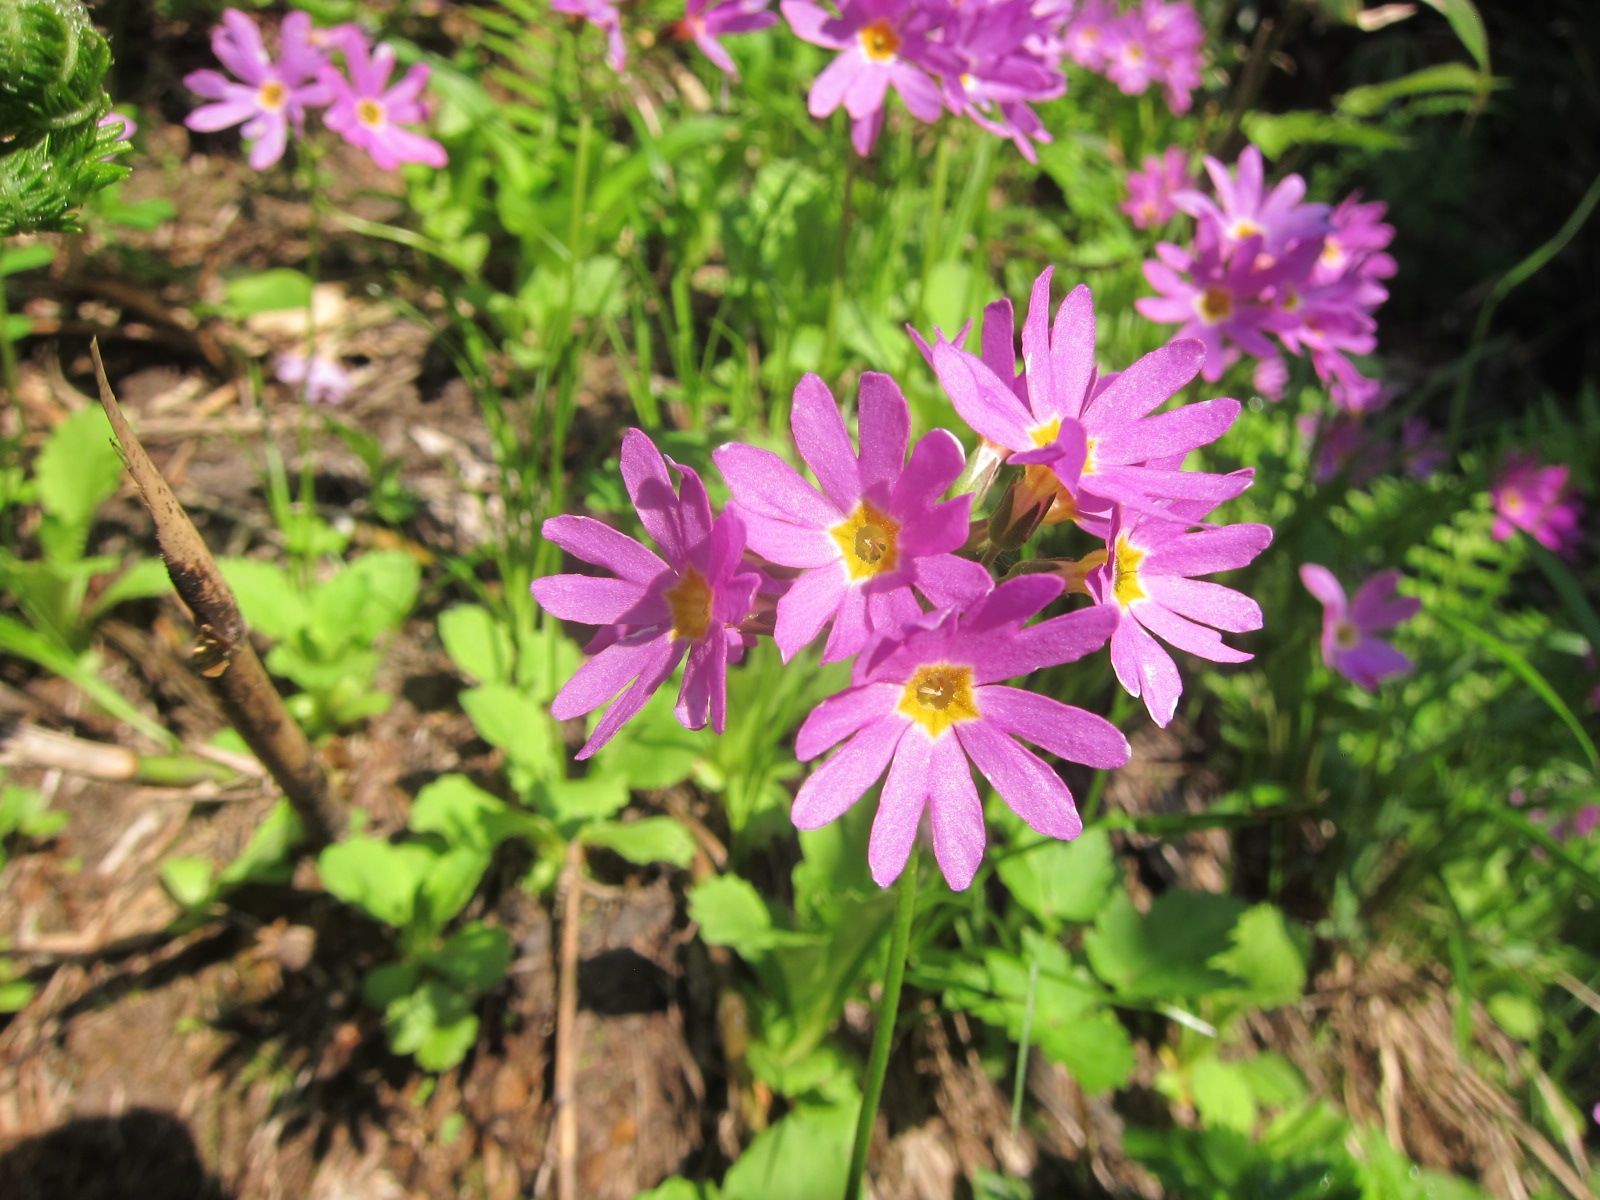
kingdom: Plantae
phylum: Tracheophyta
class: Magnoliopsida
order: Ericales
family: Primulaceae
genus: Primula
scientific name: Primula cuneifolia
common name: Wedge-leaved primrose
